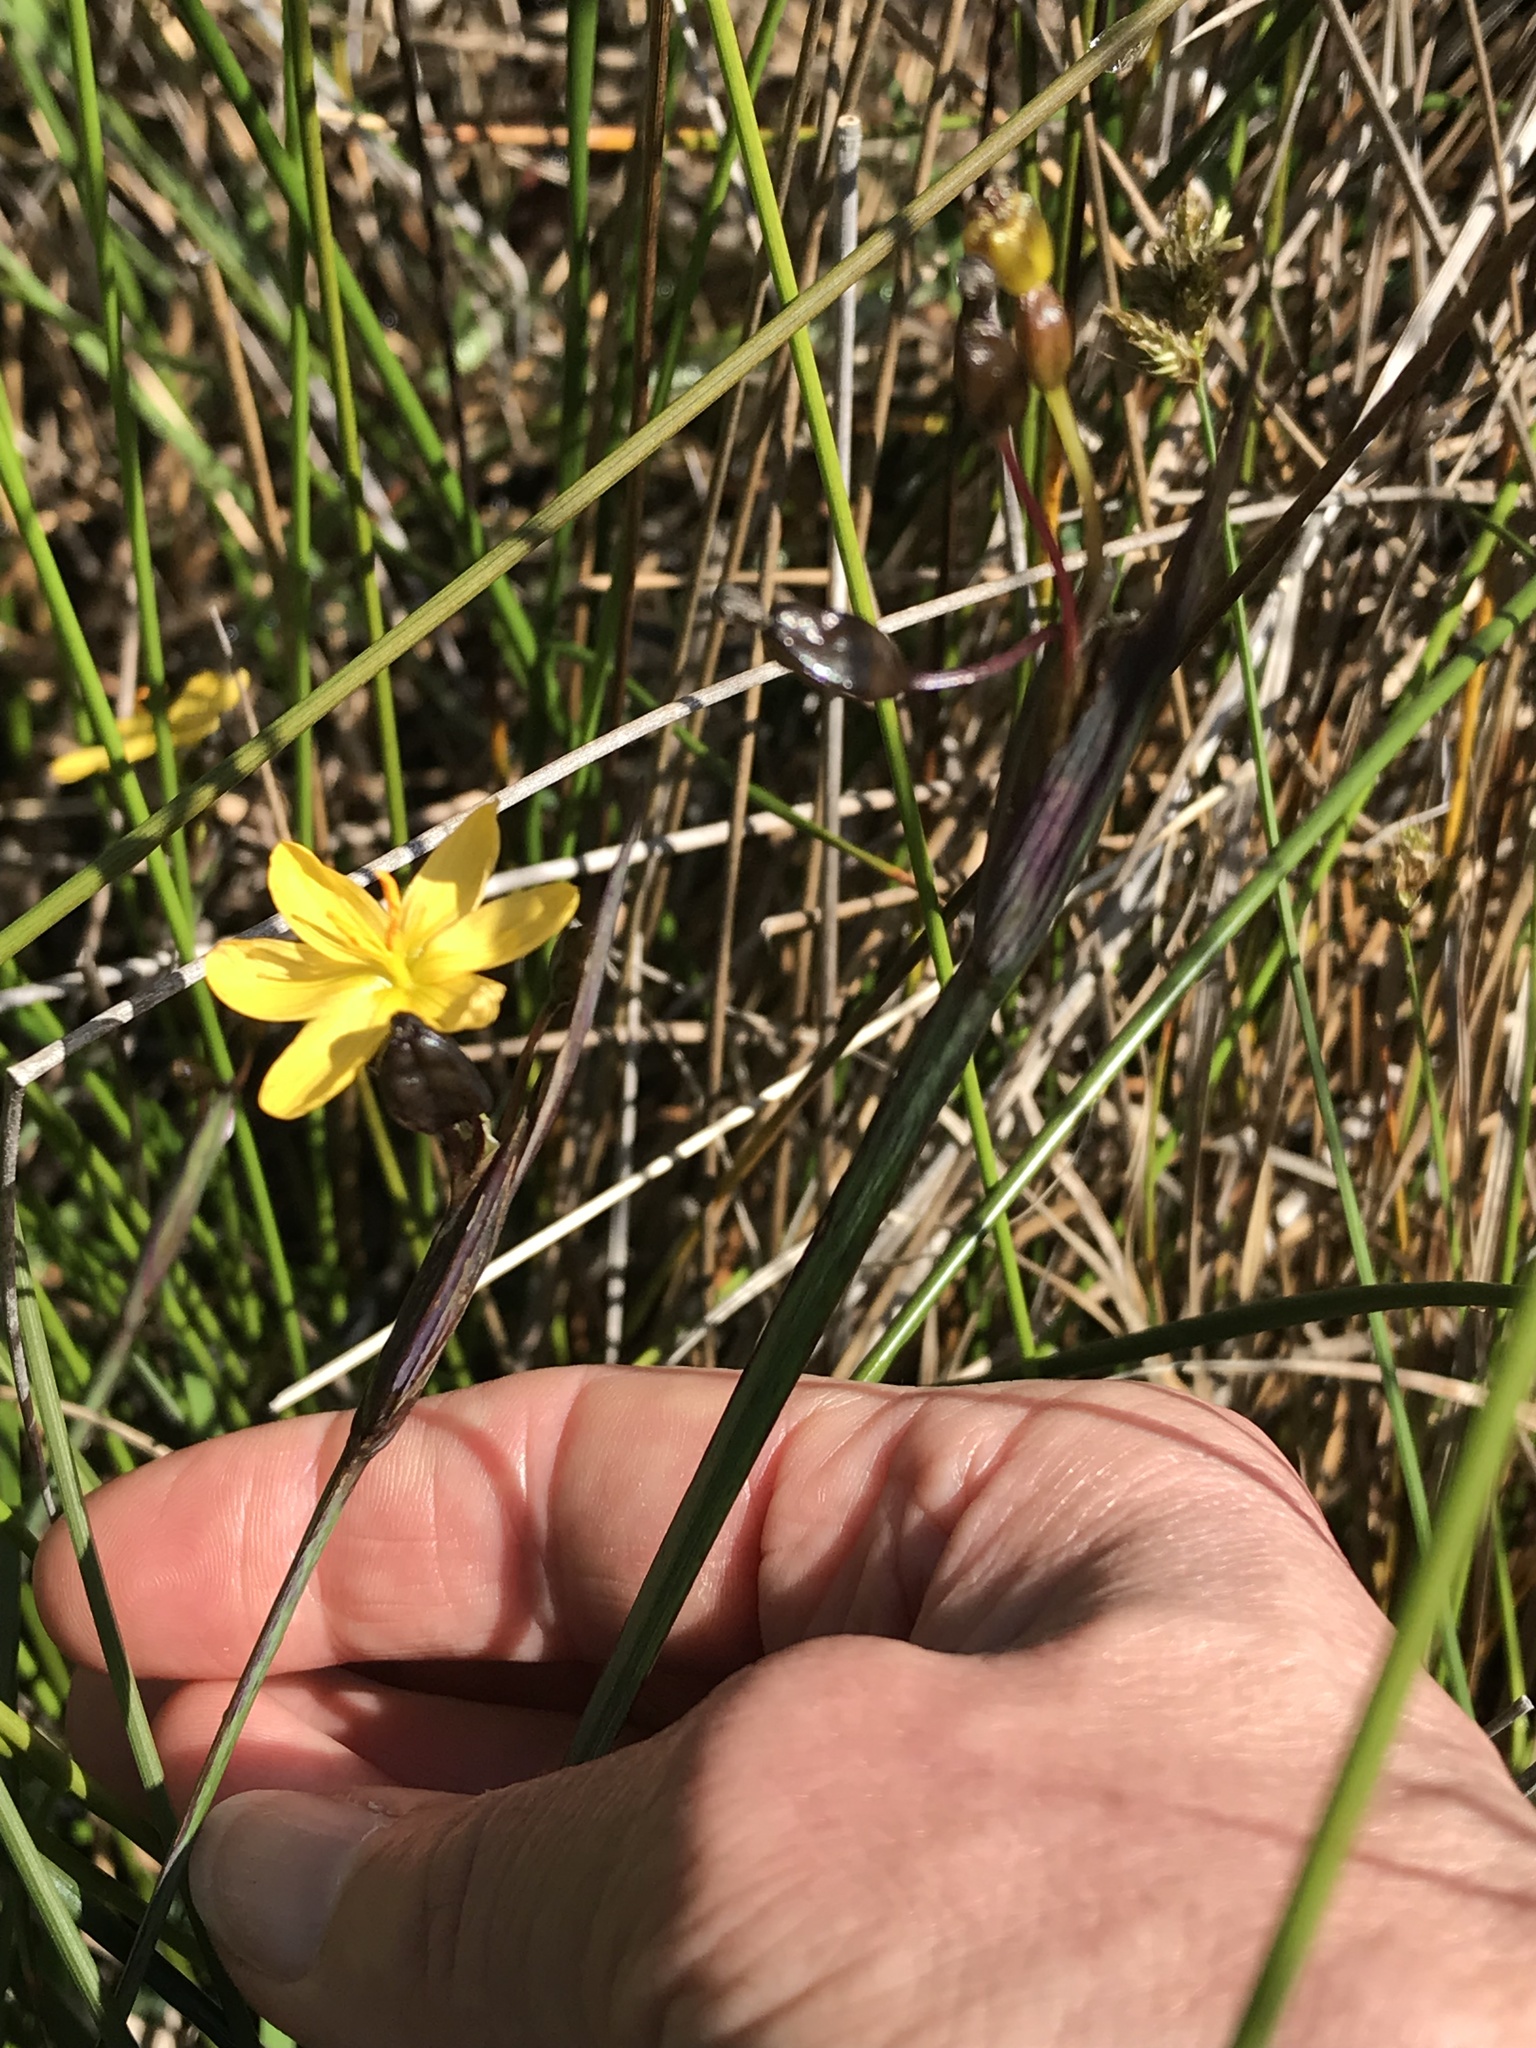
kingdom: Plantae
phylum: Tracheophyta
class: Liliopsida
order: Asparagales
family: Iridaceae
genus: Sisyrinchium
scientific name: Sisyrinchium californicum
